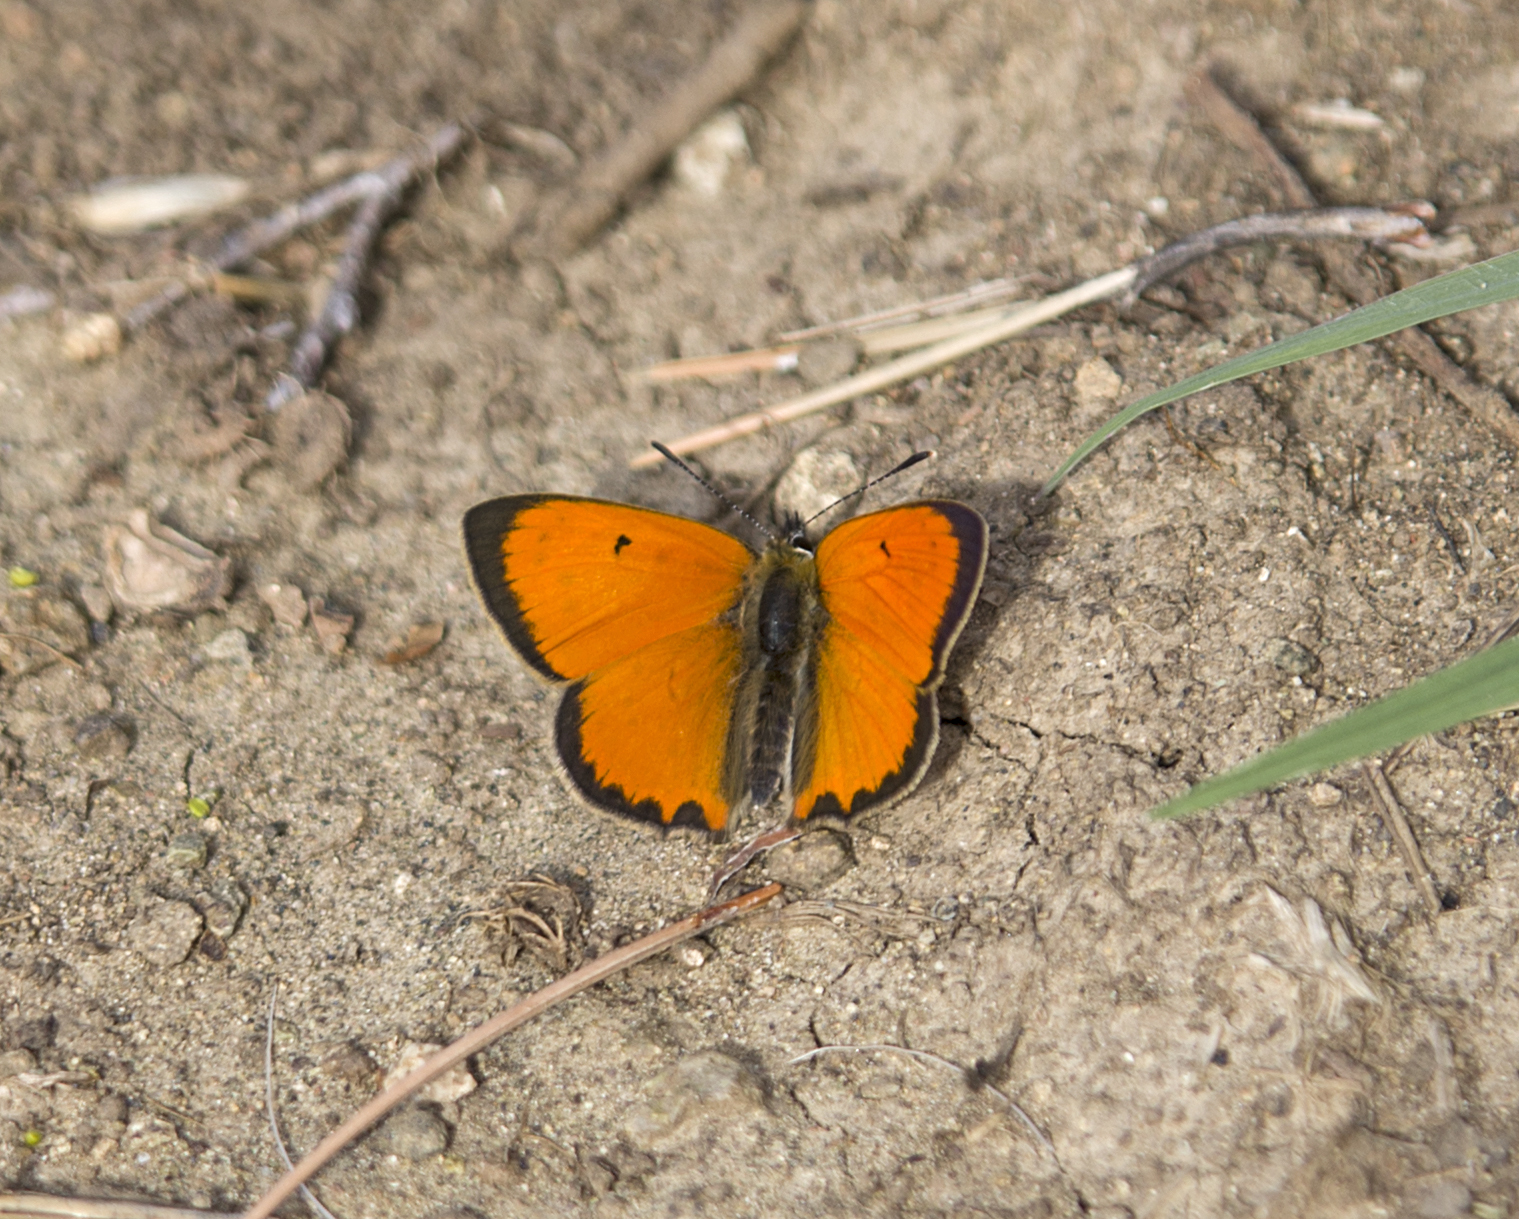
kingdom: Animalia
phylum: Arthropoda
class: Insecta
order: Lepidoptera
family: Lycaenidae
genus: Polyommatus
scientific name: Polyommatus ottomanus
